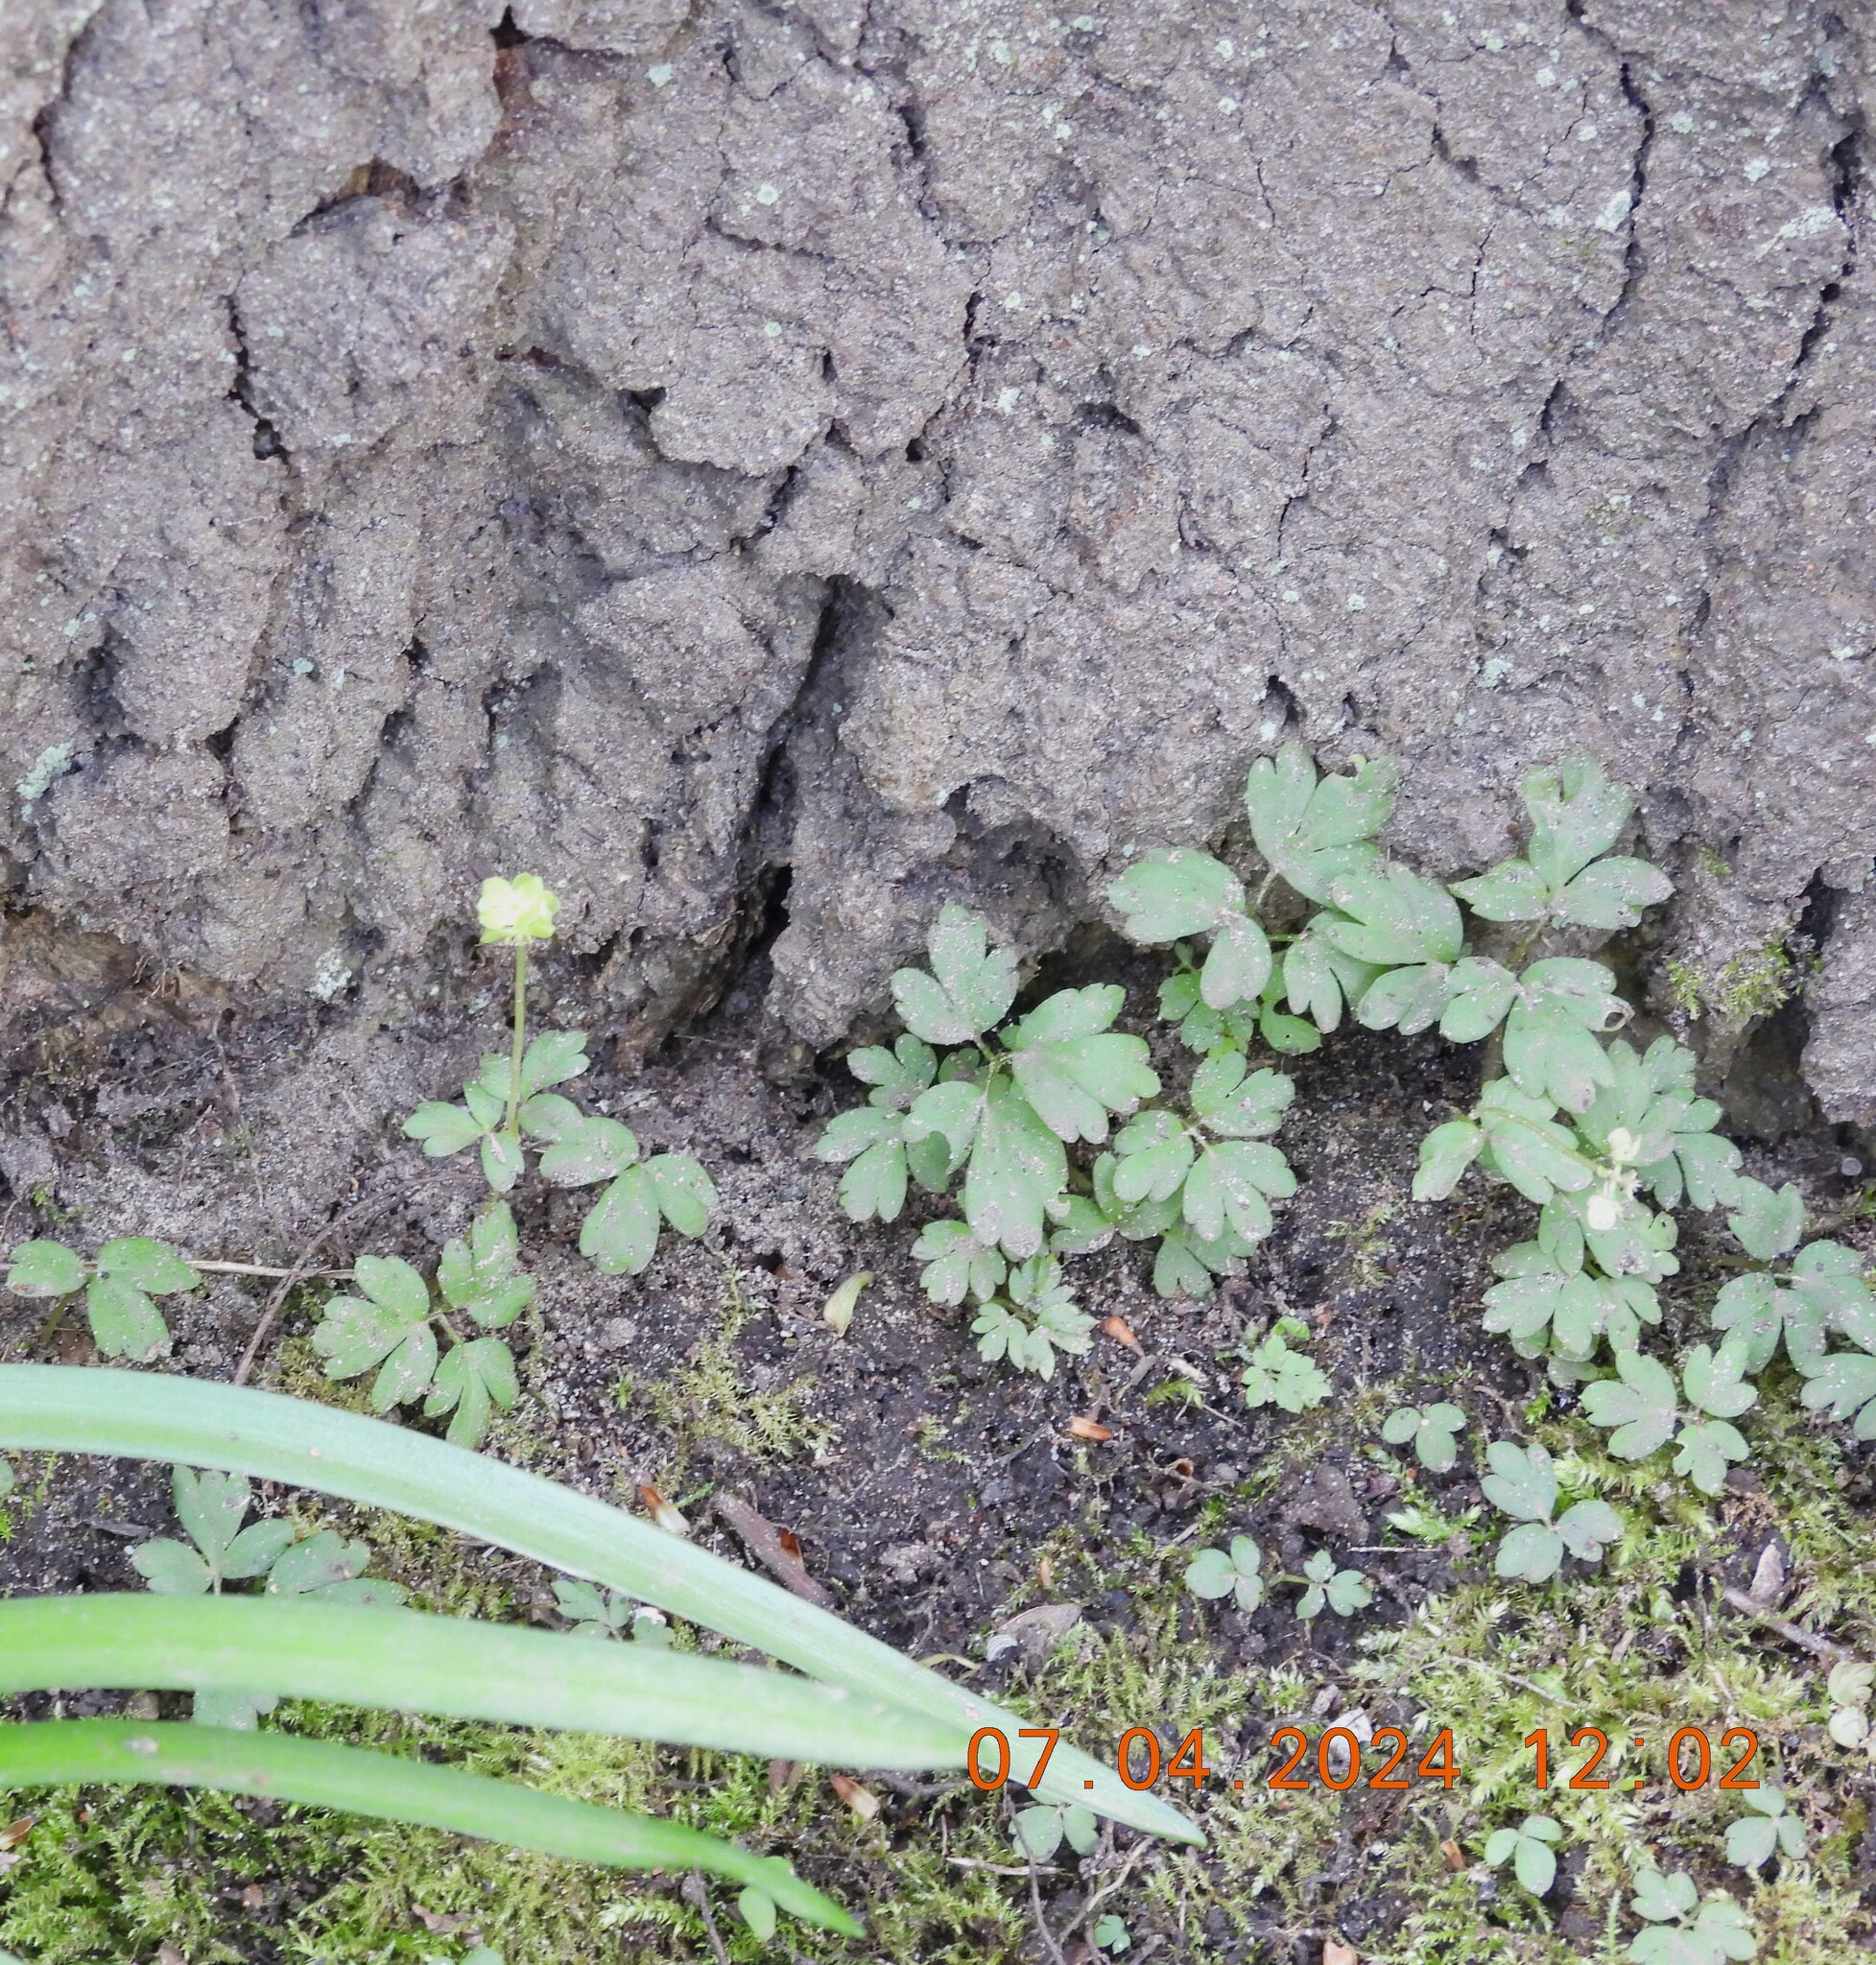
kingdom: Plantae
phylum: Tracheophyta
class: Magnoliopsida
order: Dipsacales
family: Viburnaceae
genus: Adoxa
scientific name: Adoxa moschatellina
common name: Moschatel
